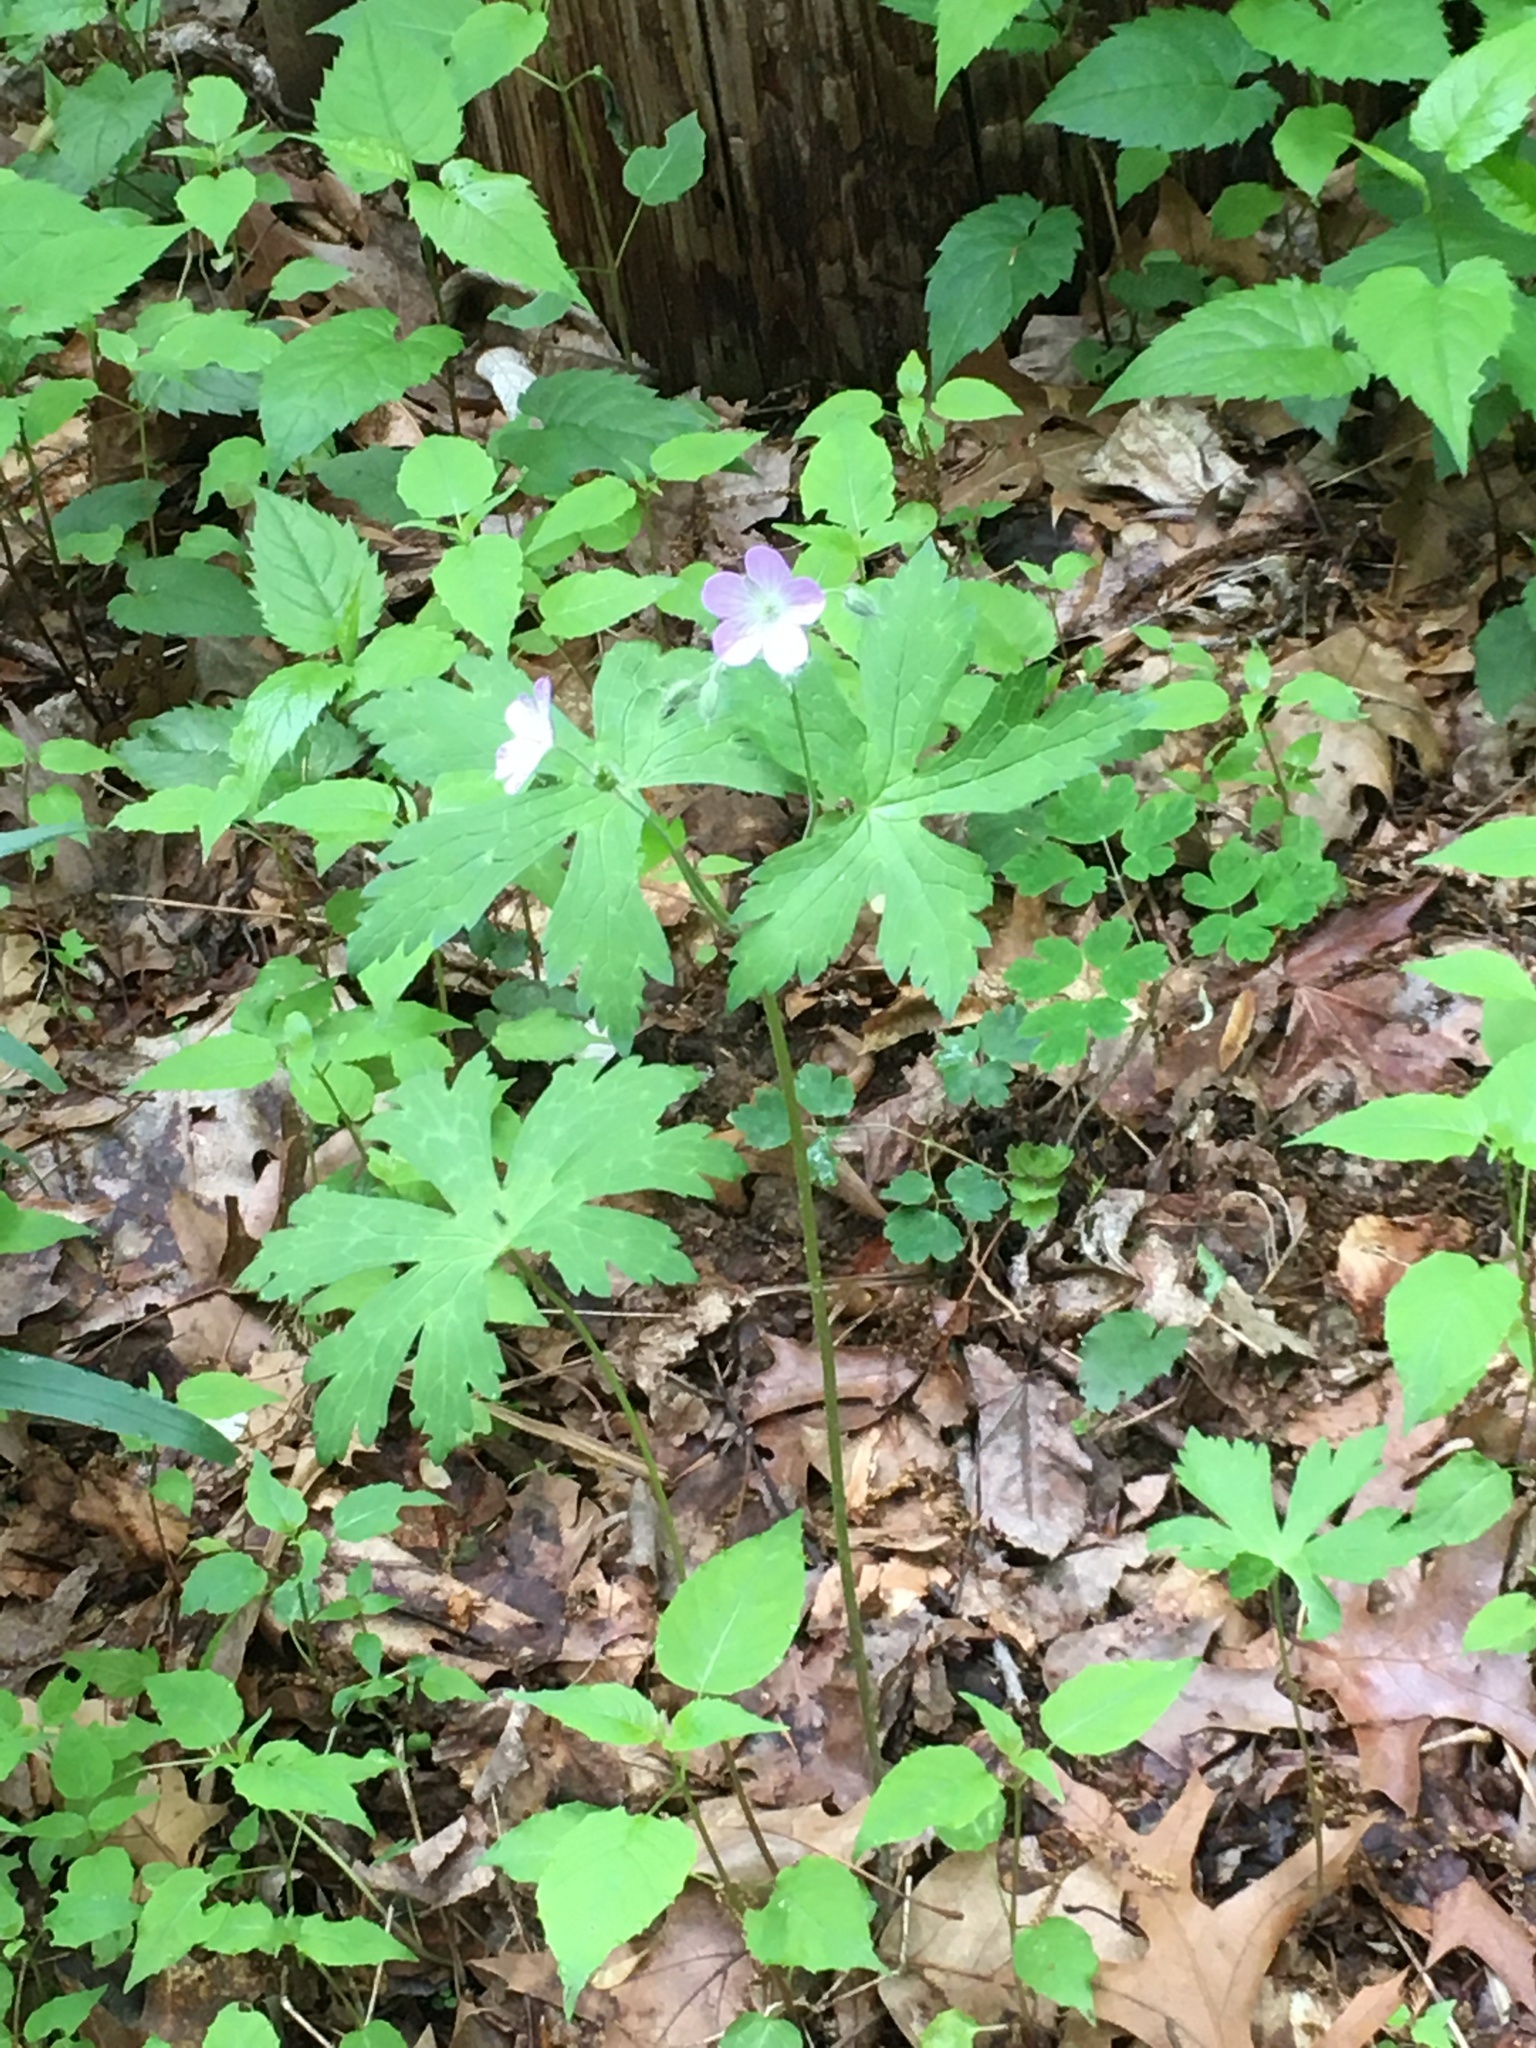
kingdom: Plantae
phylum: Tracheophyta
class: Magnoliopsida
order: Geraniales
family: Geraniaceae
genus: Geranium
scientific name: Geranium maculatum
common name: Spotted geranium
